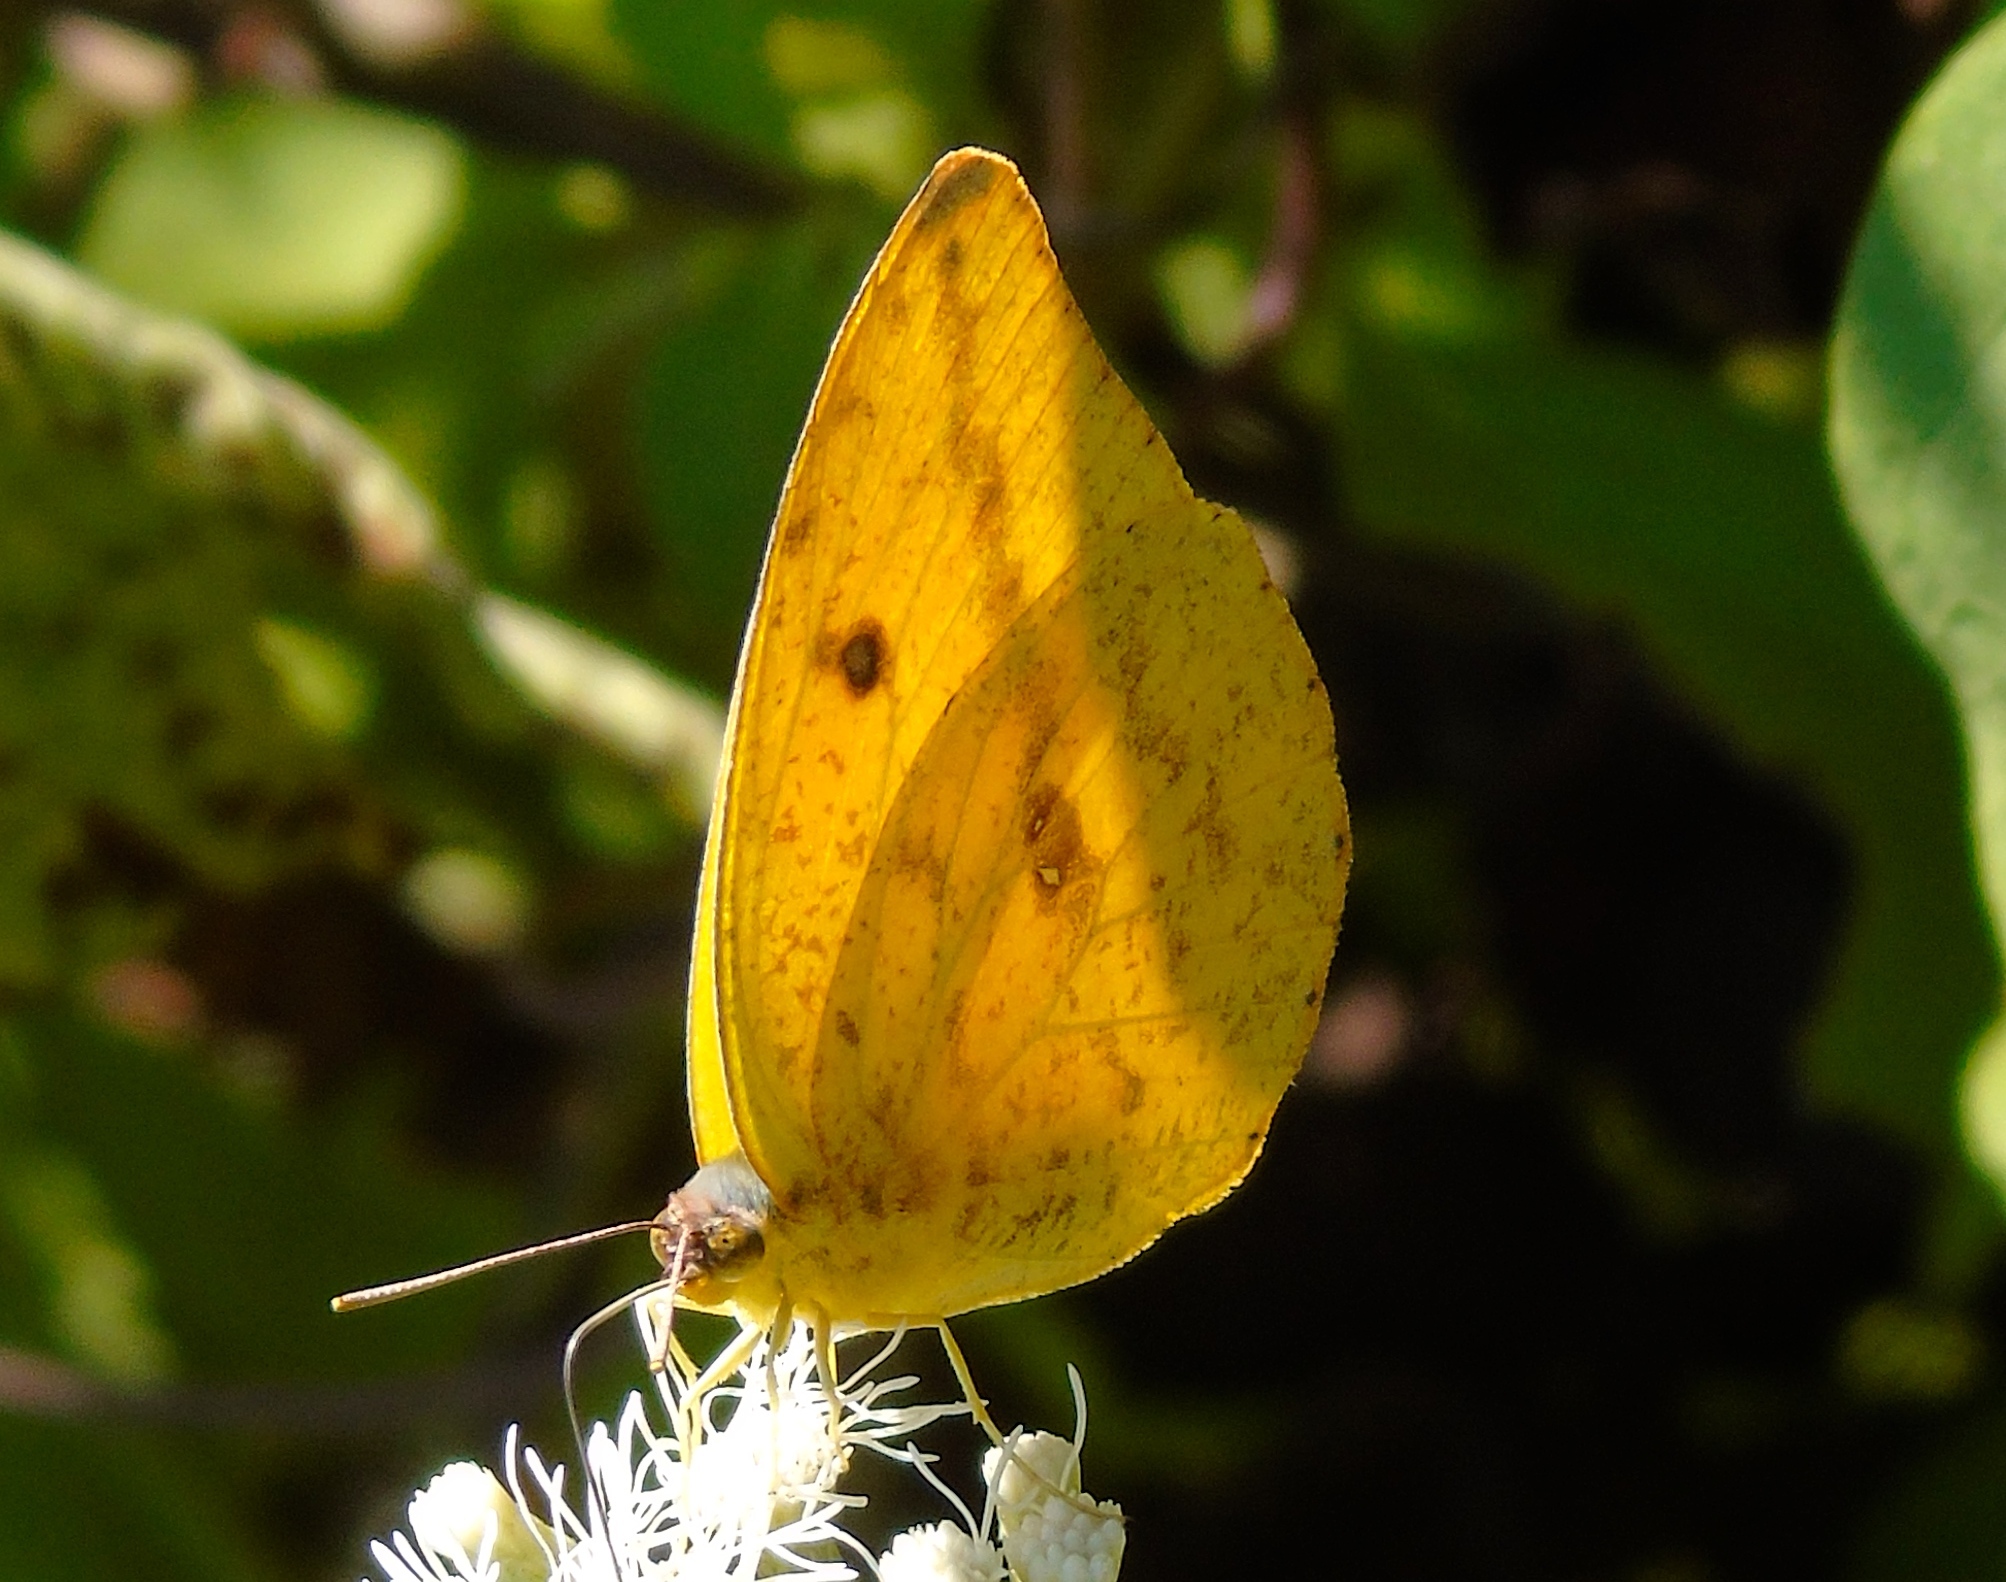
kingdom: Animalia
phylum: Arthropoda
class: Insecta
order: Lepidoptera
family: Pieridae
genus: Phoebis
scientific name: Phoebis agarithe
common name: Large orange sulphur
